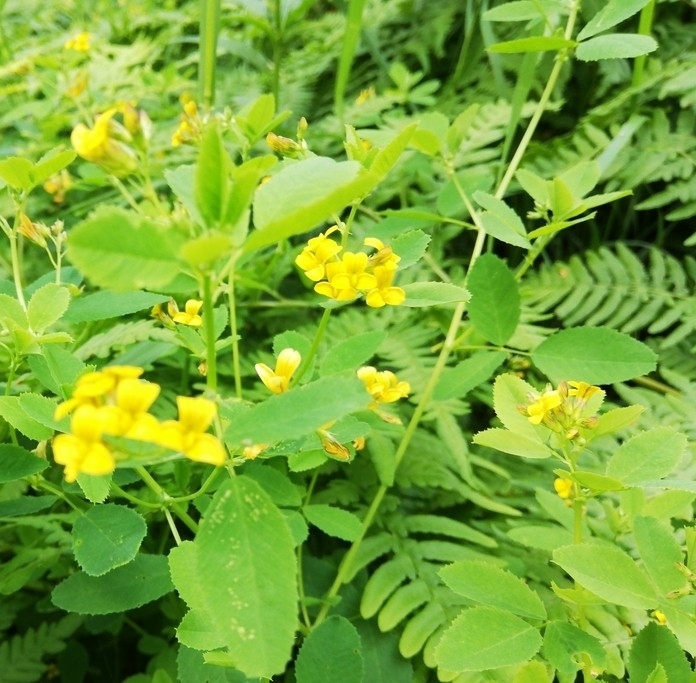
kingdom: Plantae
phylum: Tracheophyta
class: Magnoliopsida
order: Fabales
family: Fabaceae
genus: Medicago
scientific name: Medicago platycarpos
